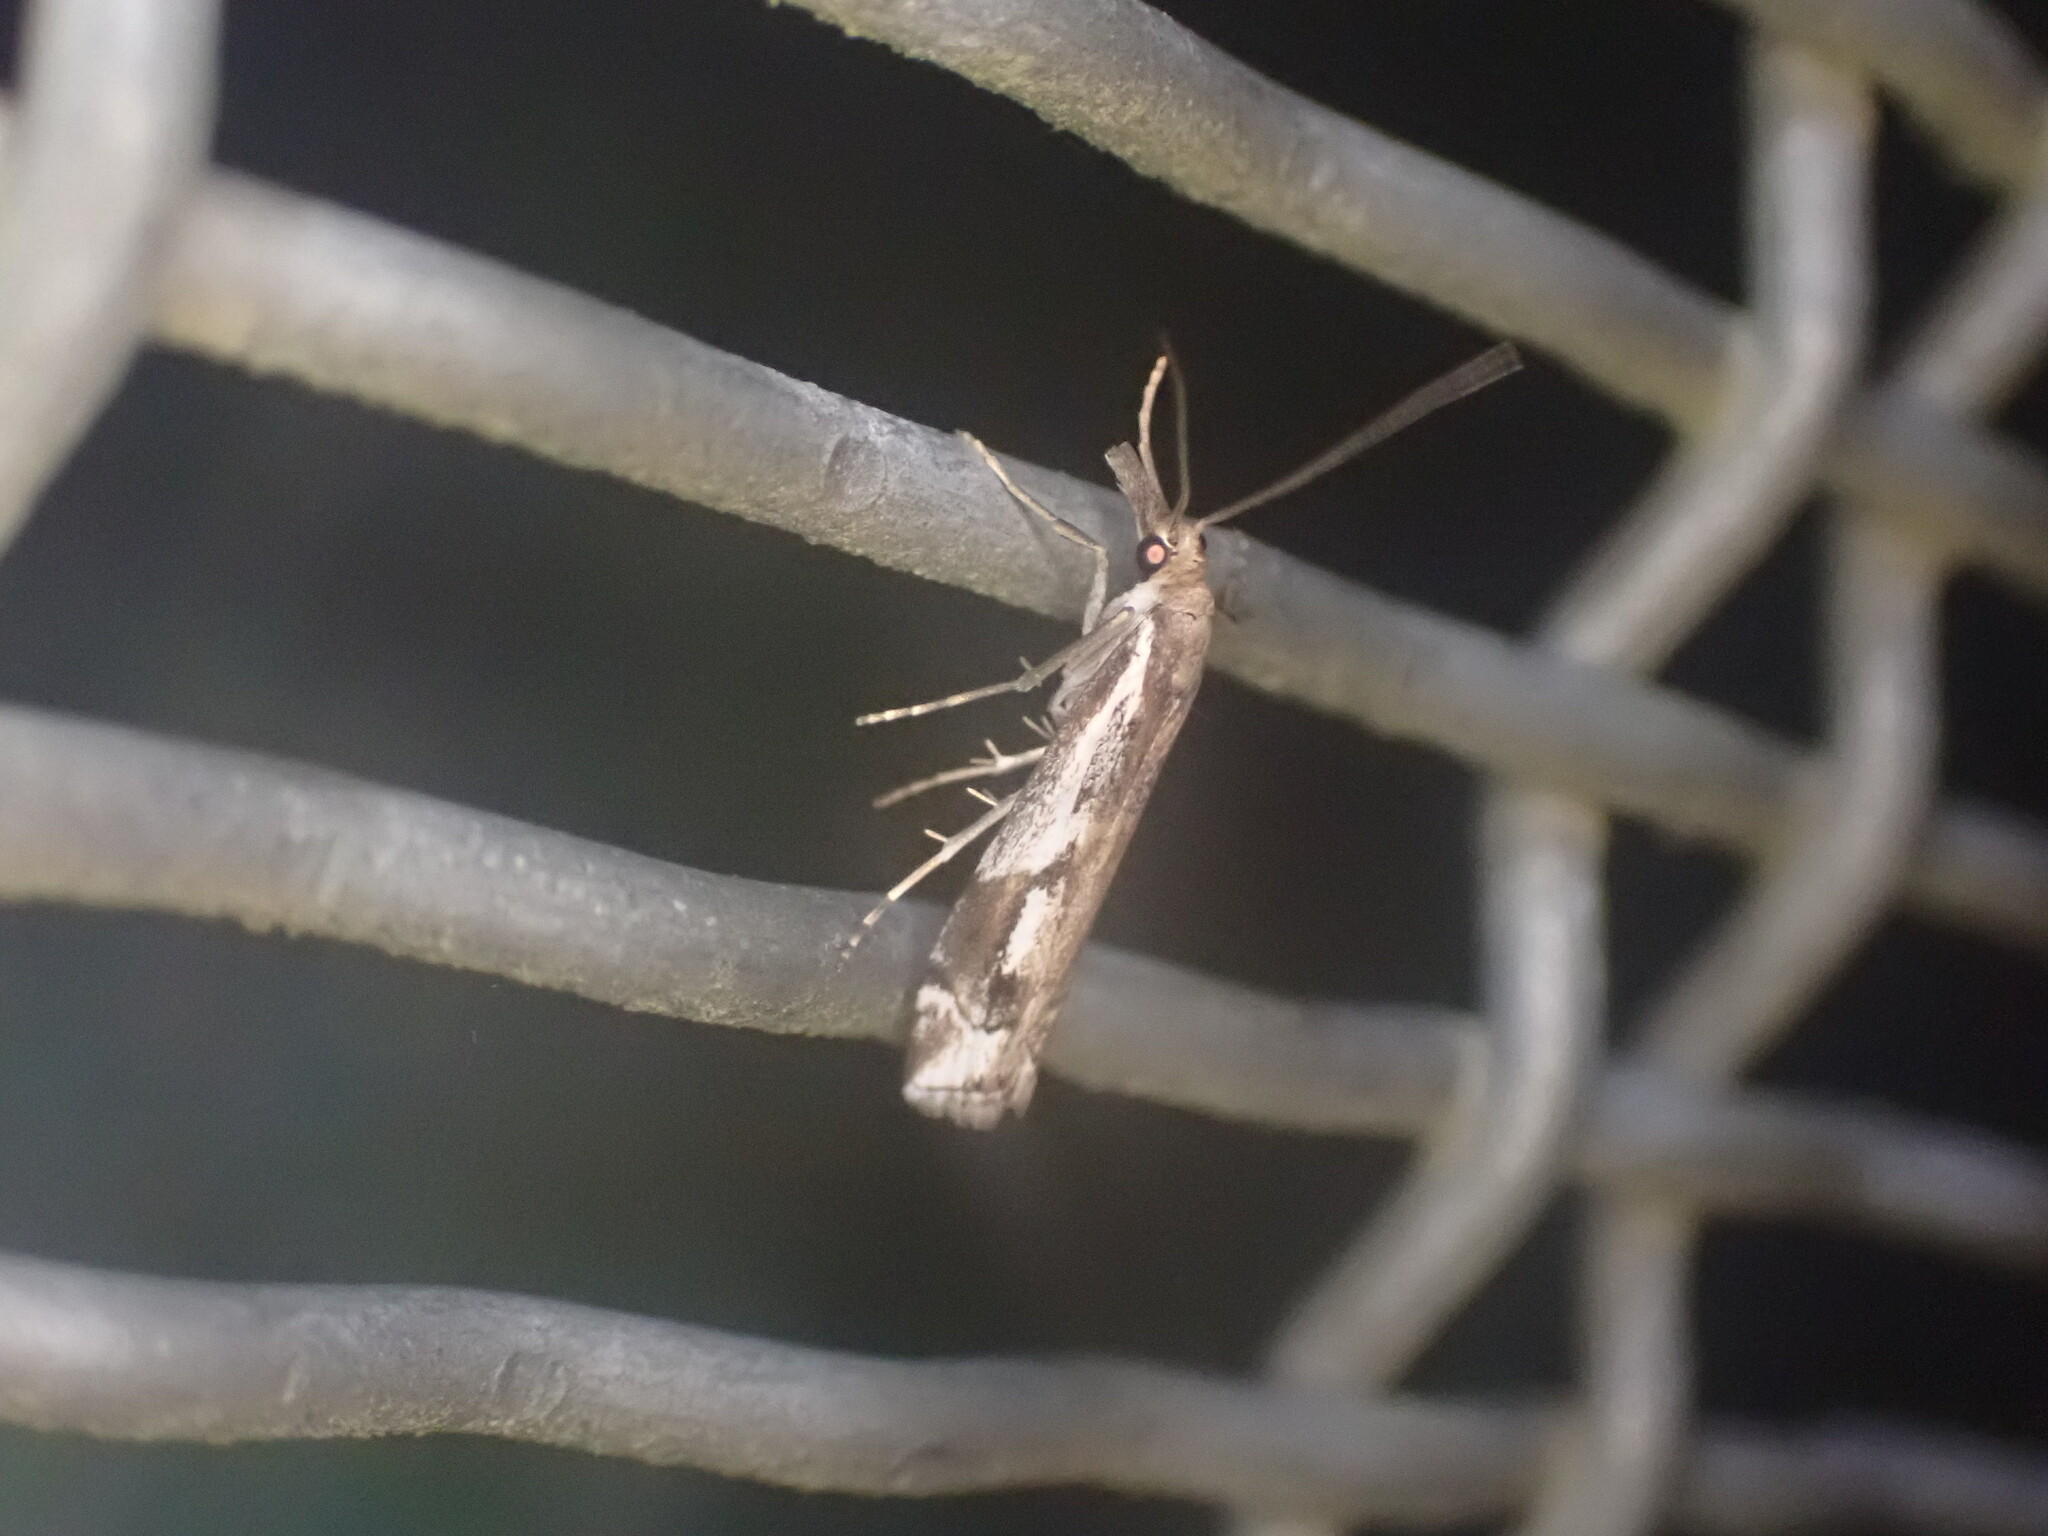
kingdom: Animalia
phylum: Arthropoda
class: Insecta
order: Lepidoptera
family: Crambidae
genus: Orocrambus
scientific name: Orocrambus vulgaris
